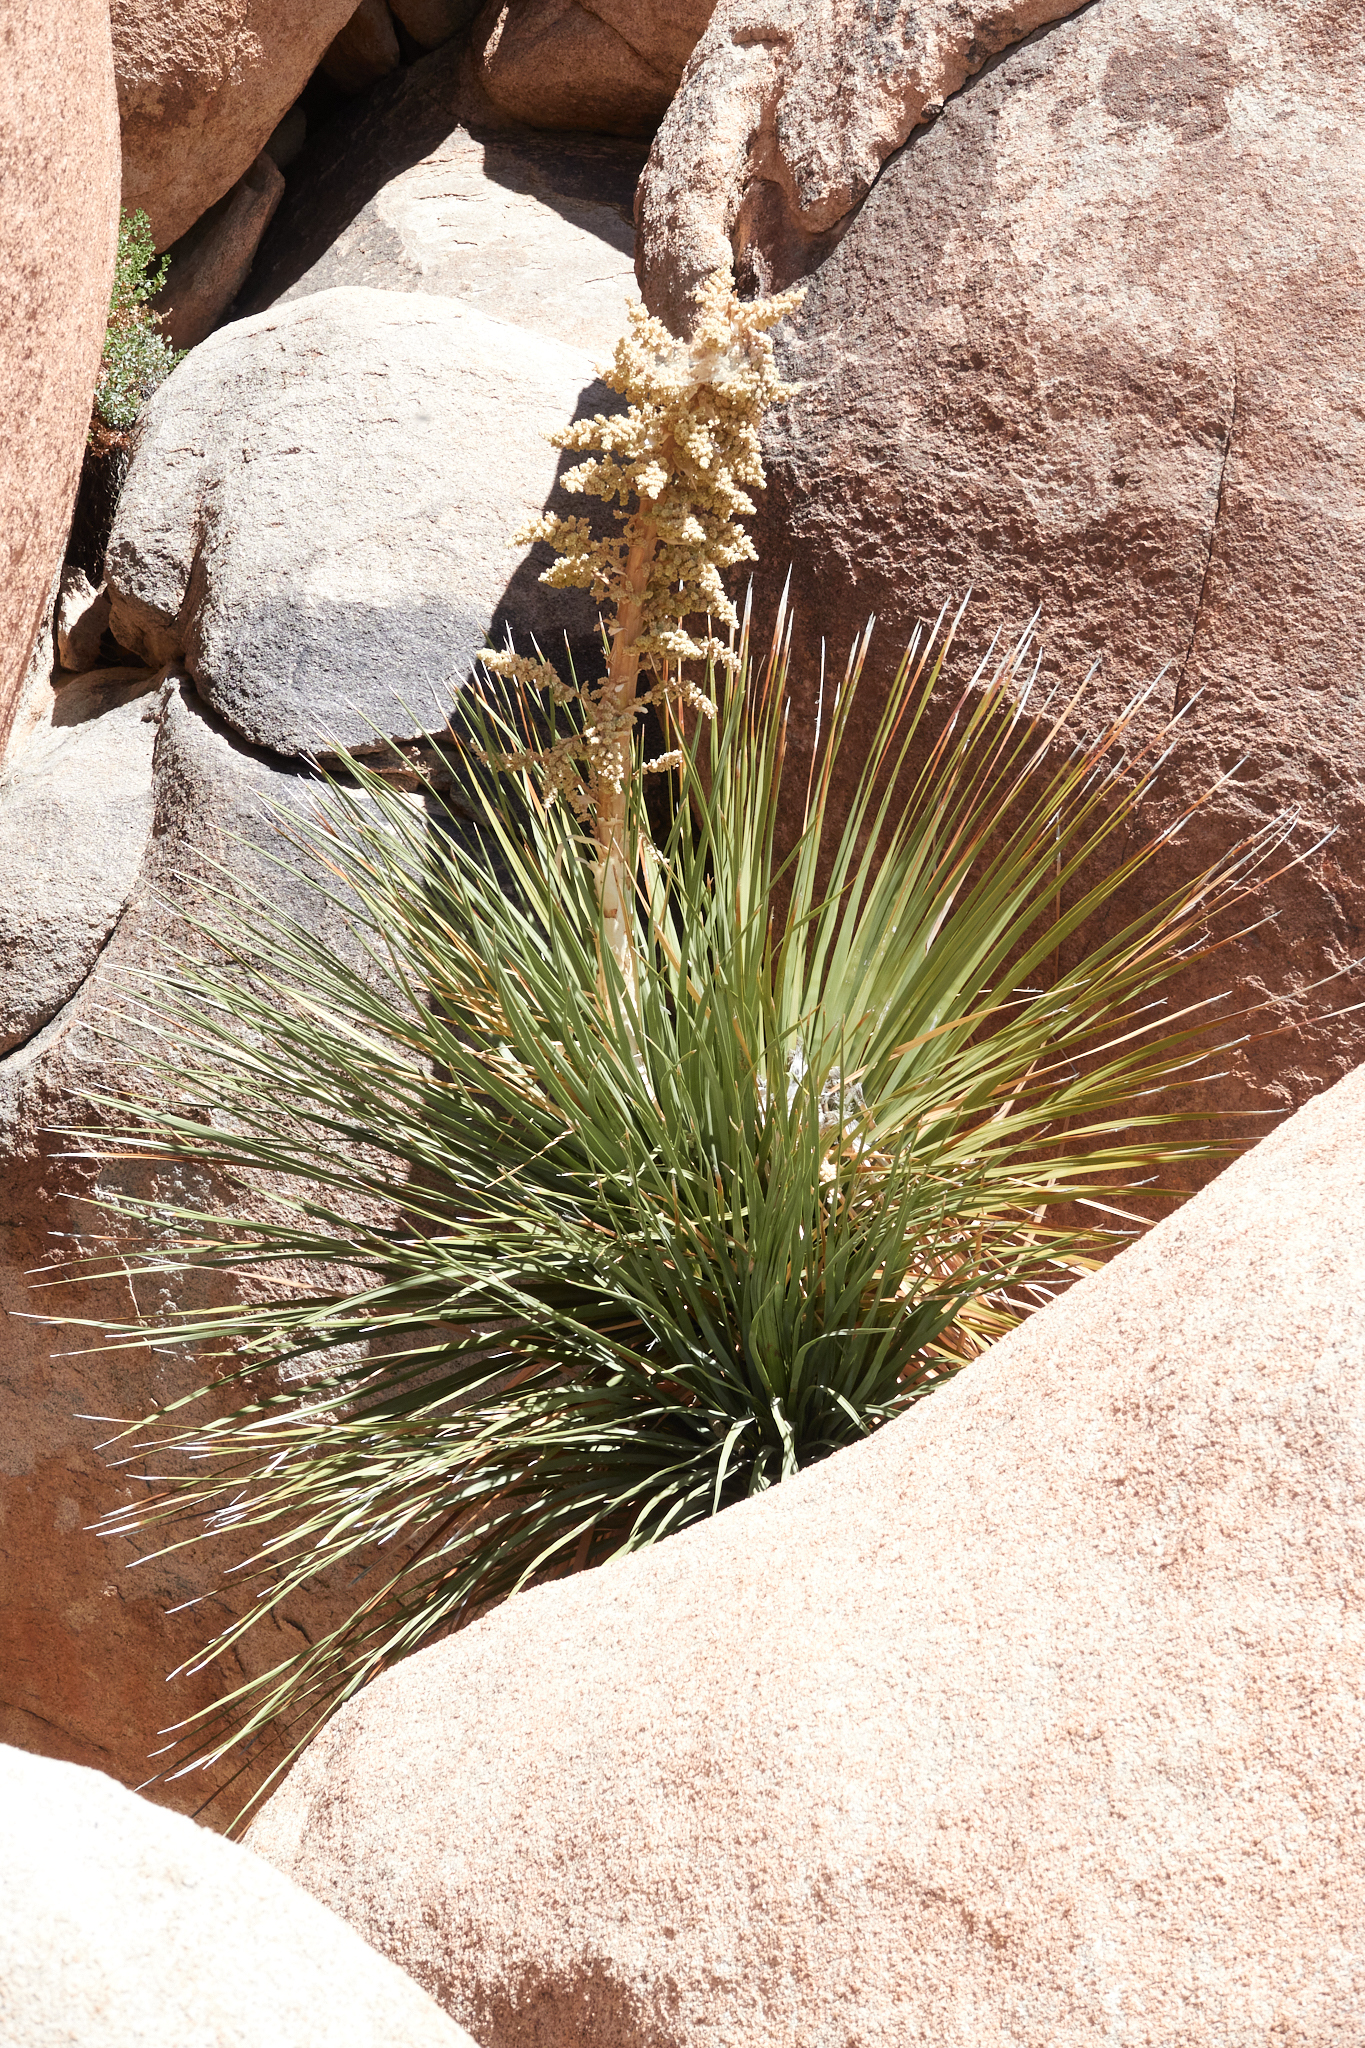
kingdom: Plantae
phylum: Tracheophyta
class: Liliopsida
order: Asparagales
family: Asparagaceae
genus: Nolina
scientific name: Nolina parryi
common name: Parry nolina
